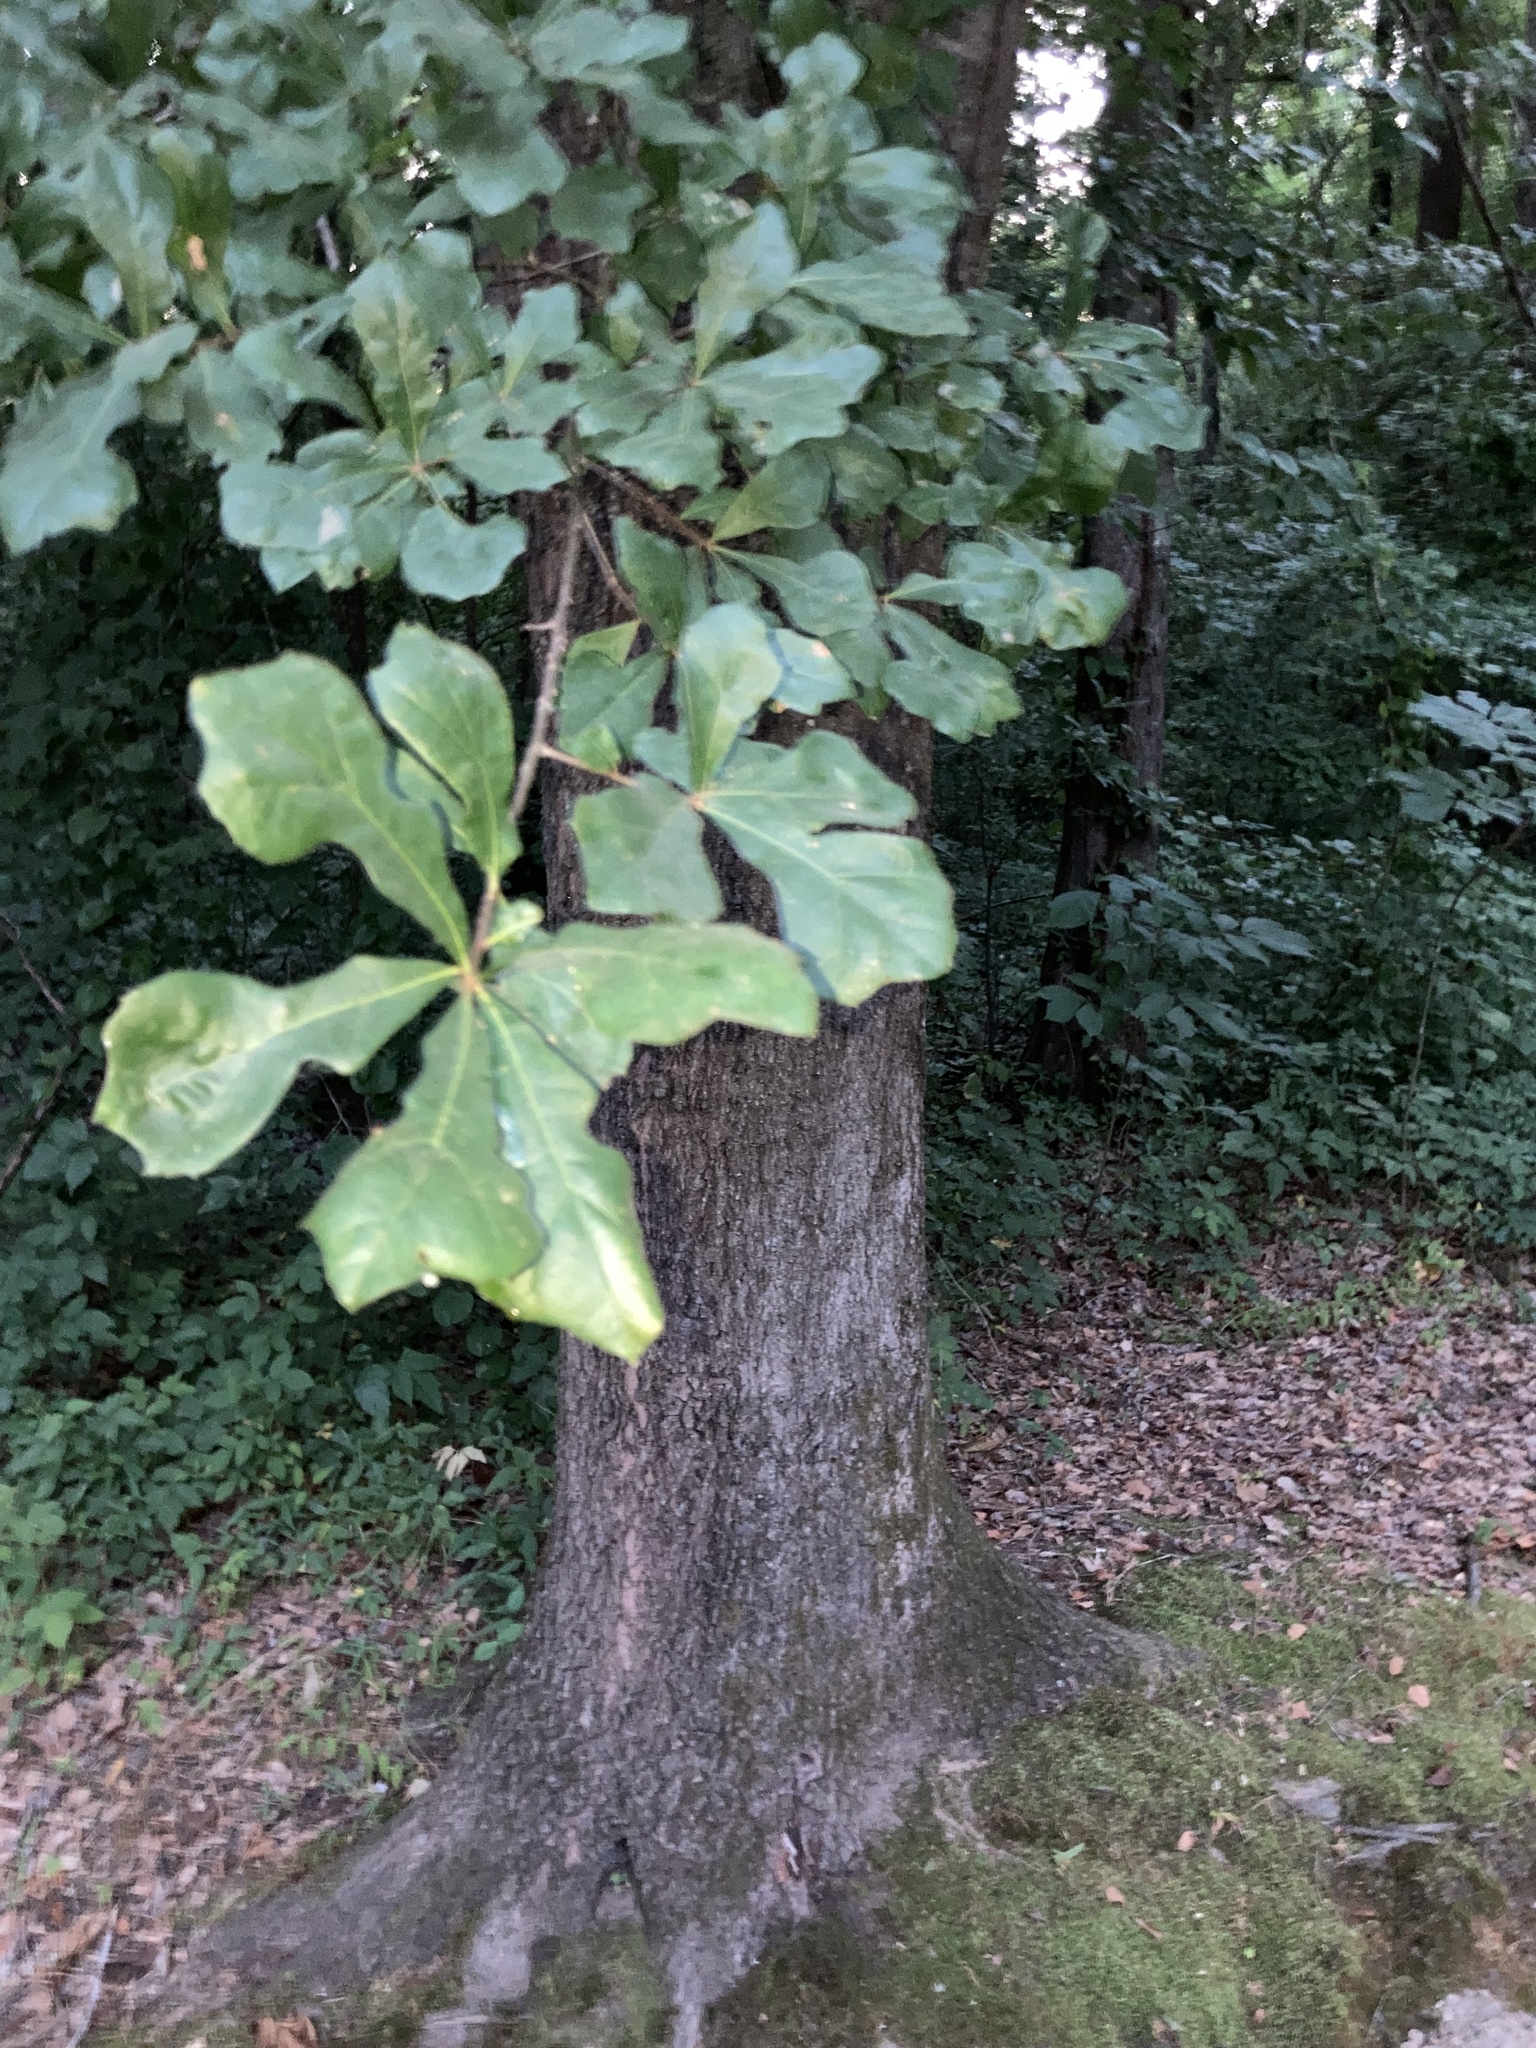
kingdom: Plantae
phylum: Tracheophyta
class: Magnoliopsida
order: Fagales
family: Fagaceae
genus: Quercus
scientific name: Quercus nigra
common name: Water oak
